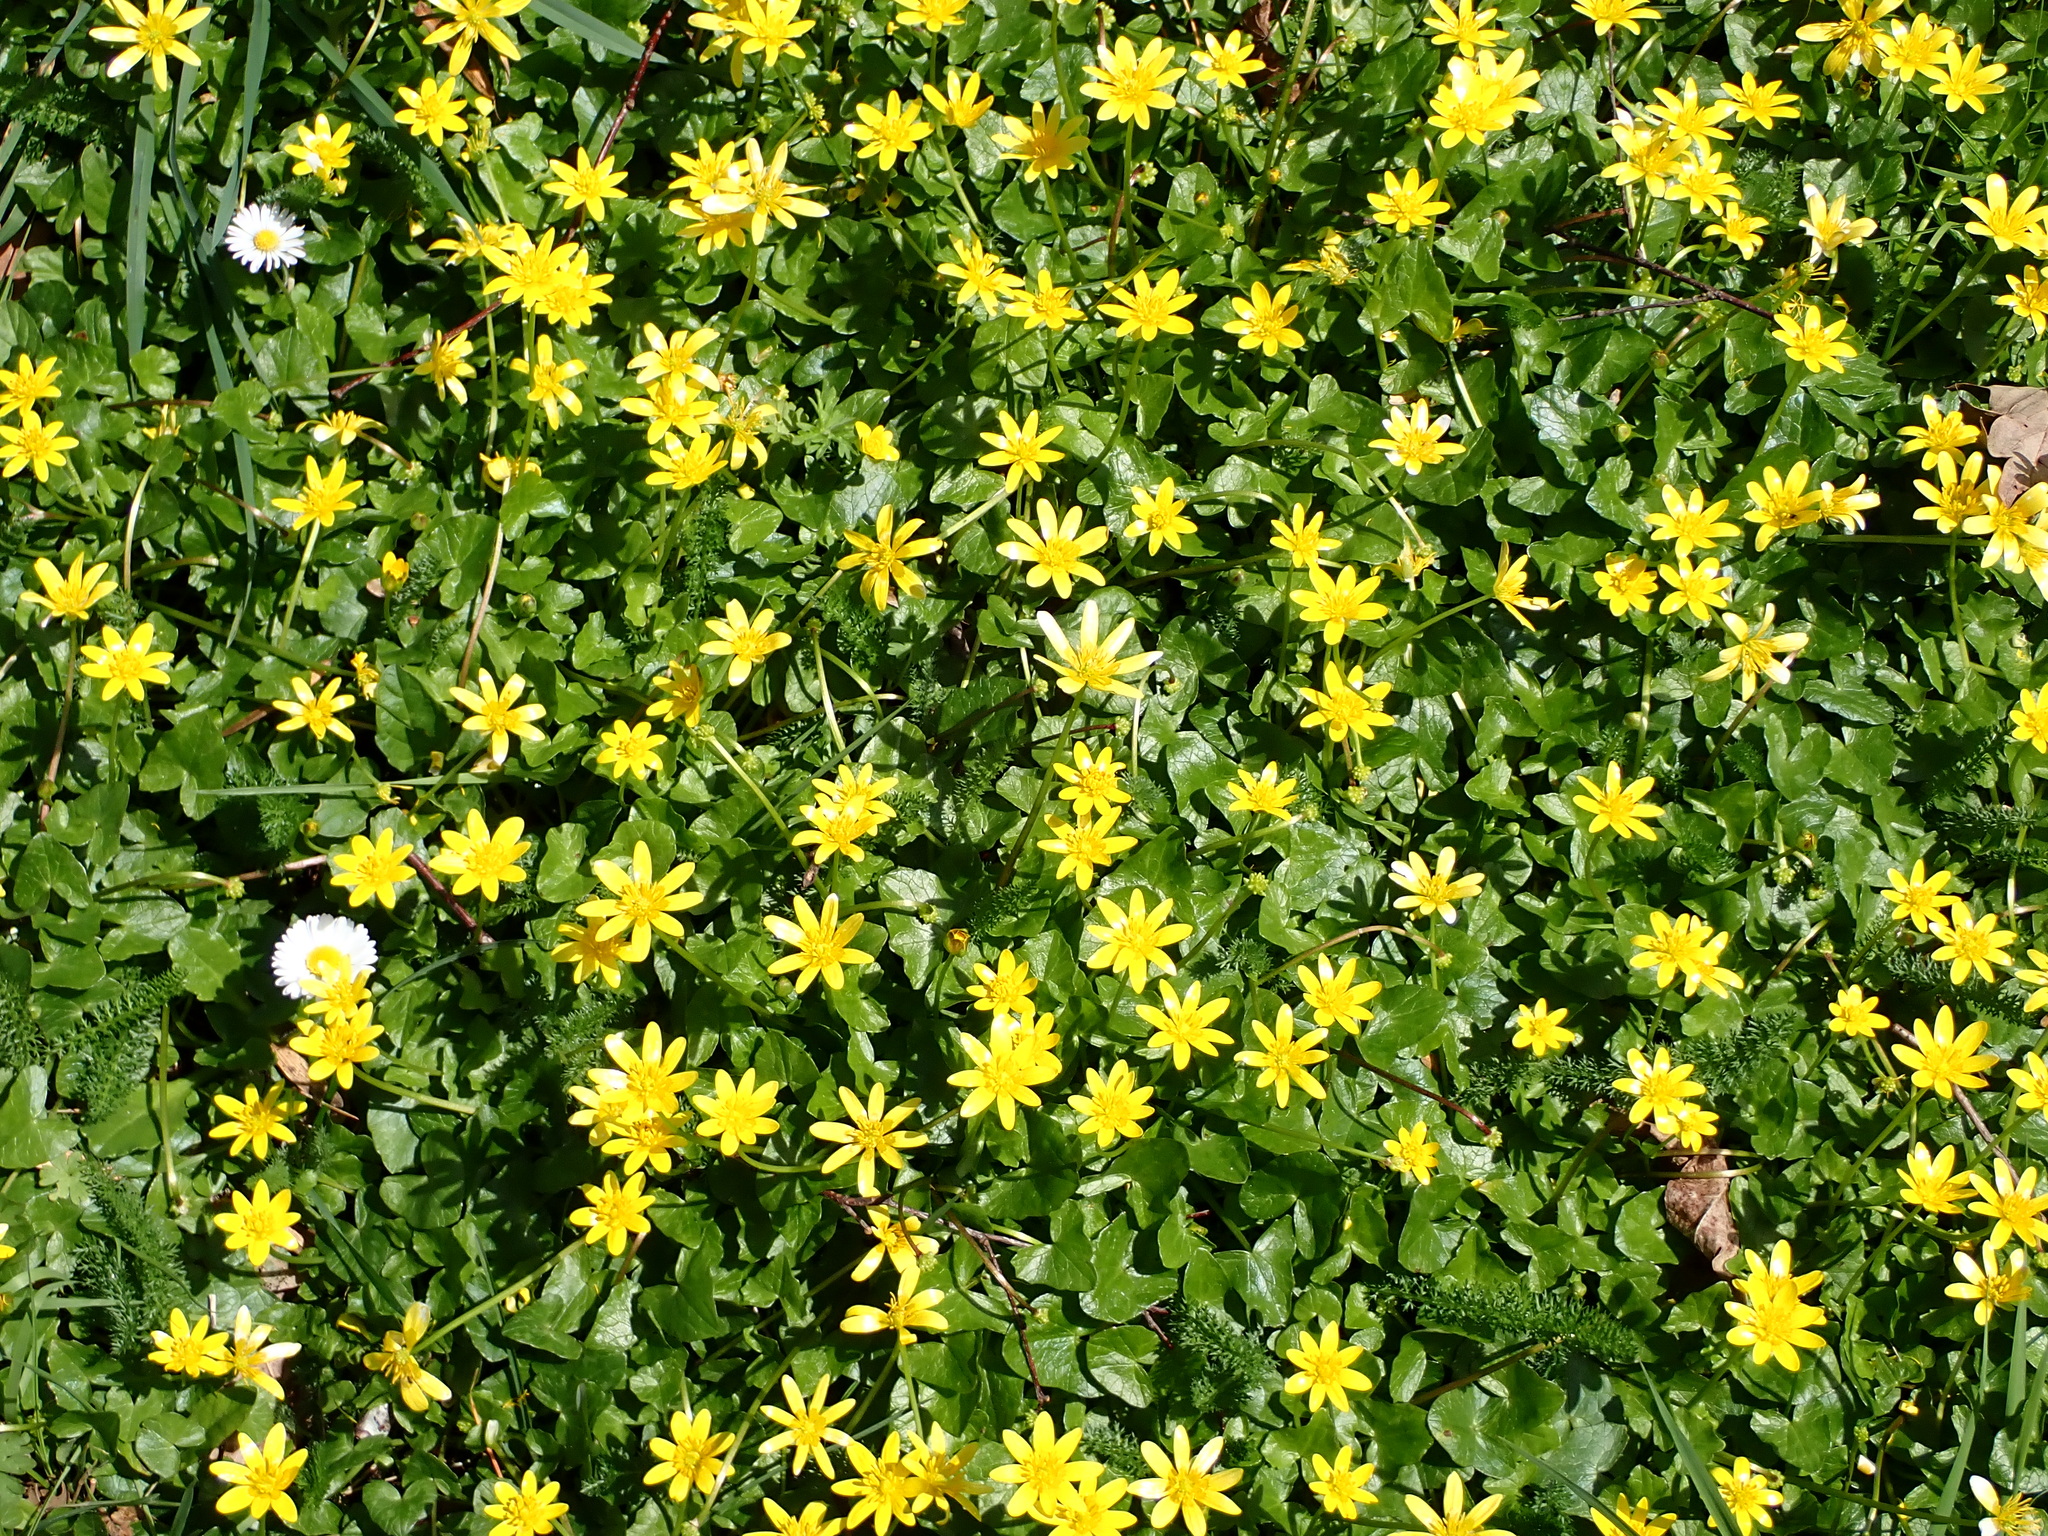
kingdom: Plantae
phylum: Tracheophyta
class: Magnoliopsida
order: Ranunculales
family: Ranunculaceae
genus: Ficaria
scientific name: Ficaria verna
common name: Lesser celandine
